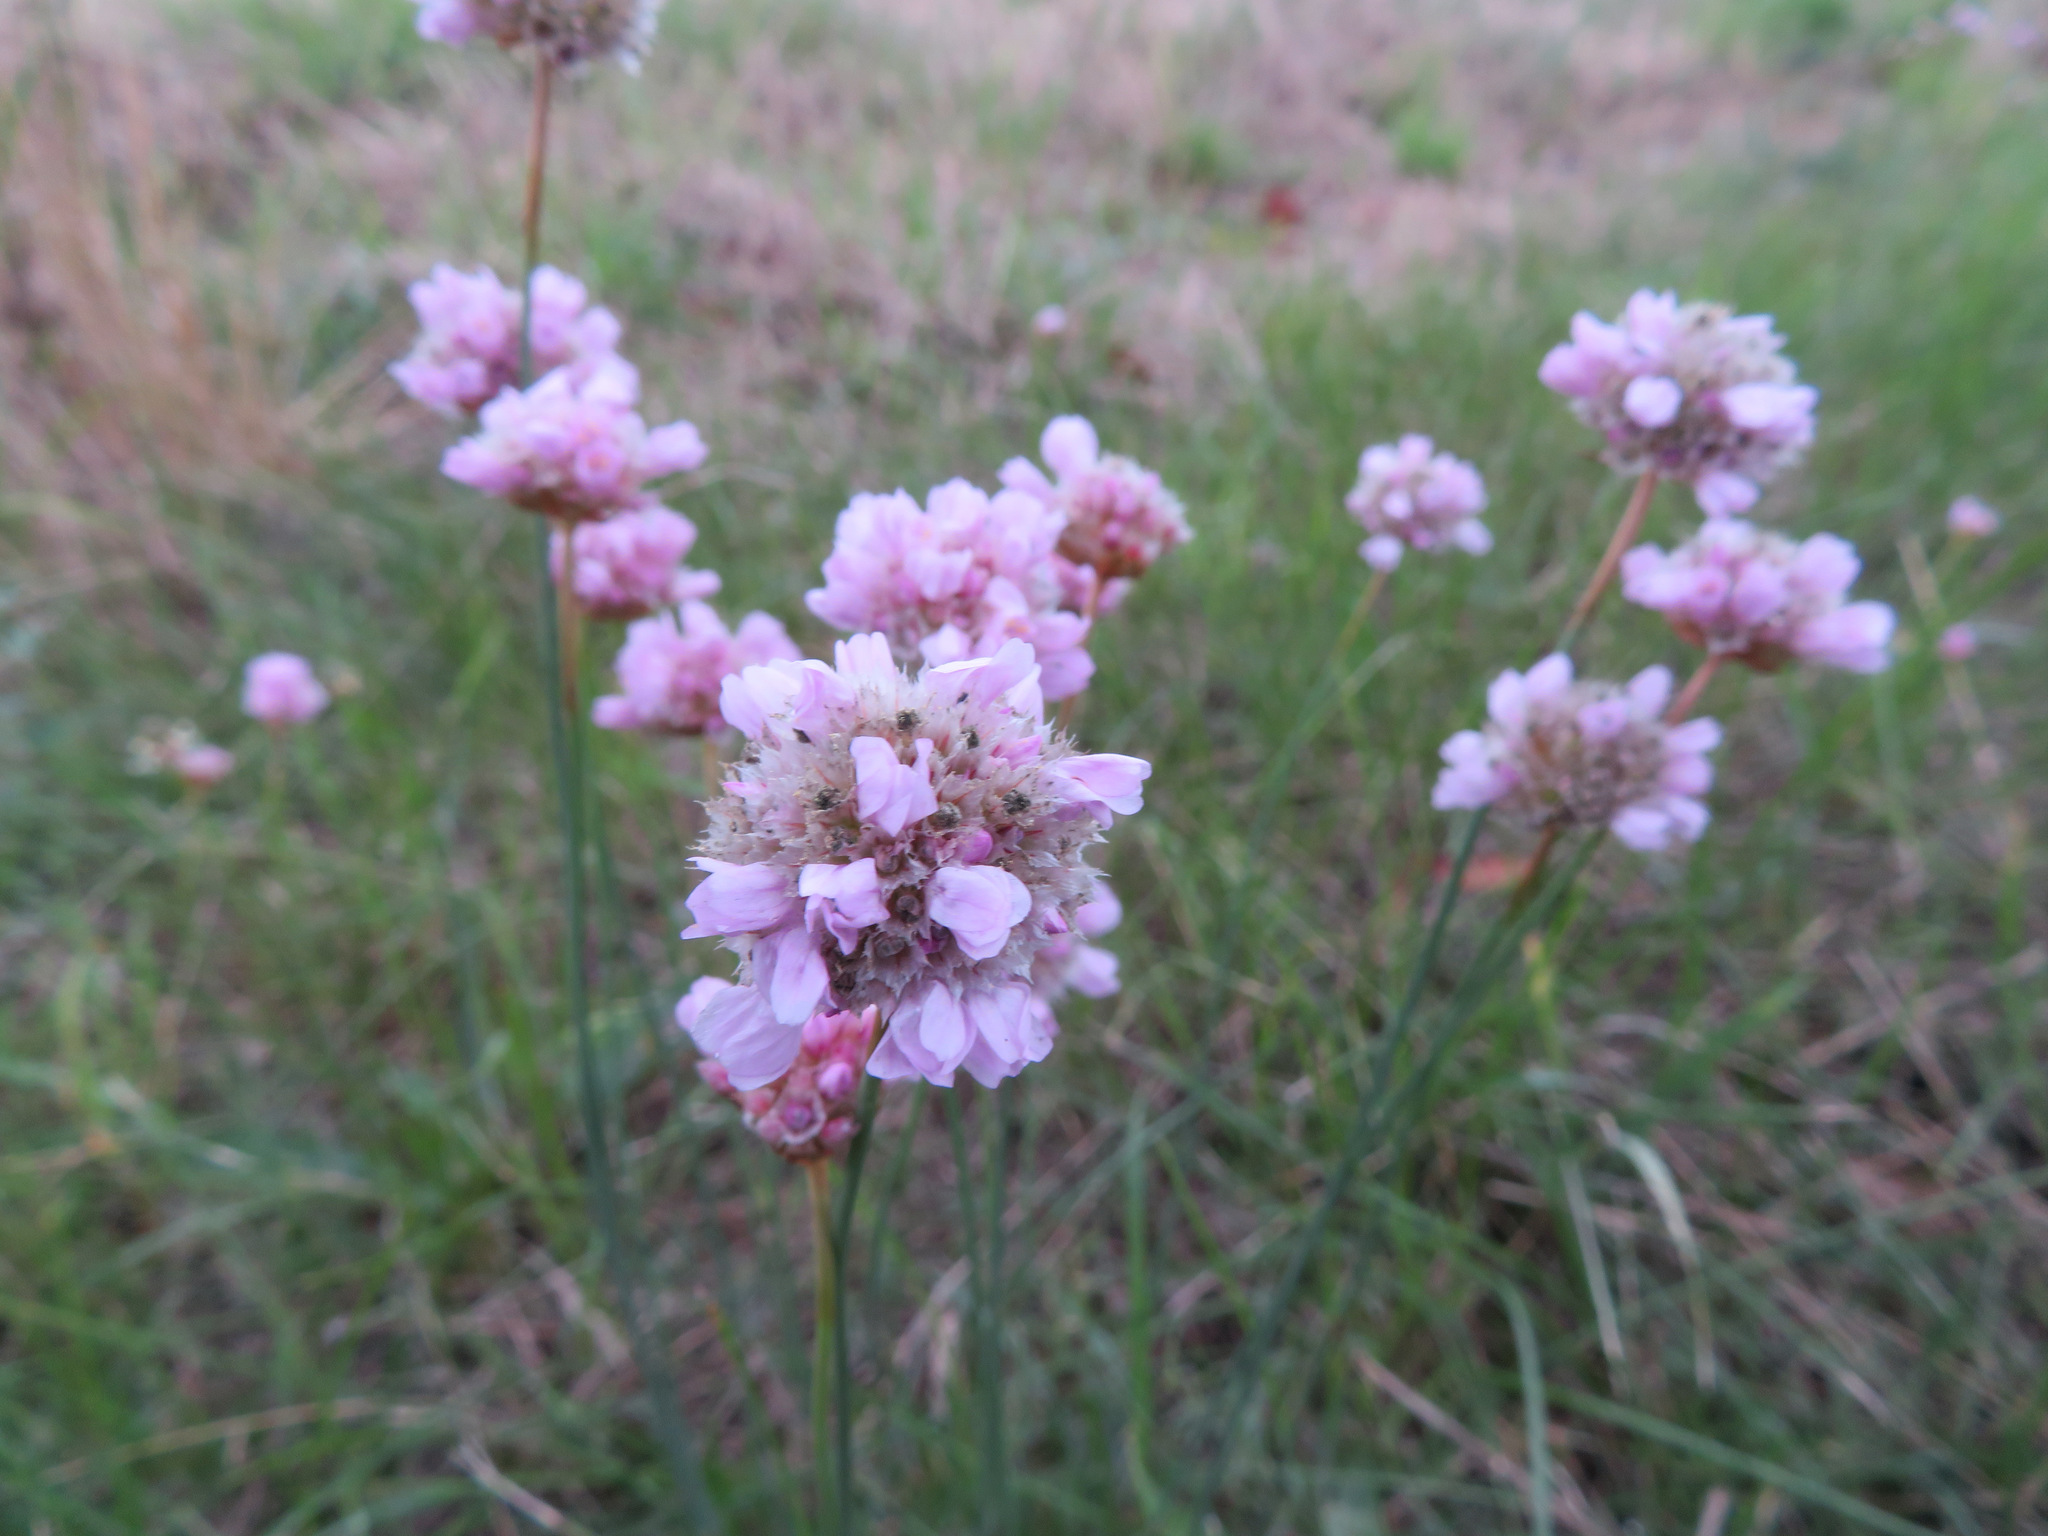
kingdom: Plantae
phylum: Tracheophyta
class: Magnoliopsida
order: Caryophyllales
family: Plumbaginaceae
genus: Armeria
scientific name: Armeria maritima
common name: Thrift
